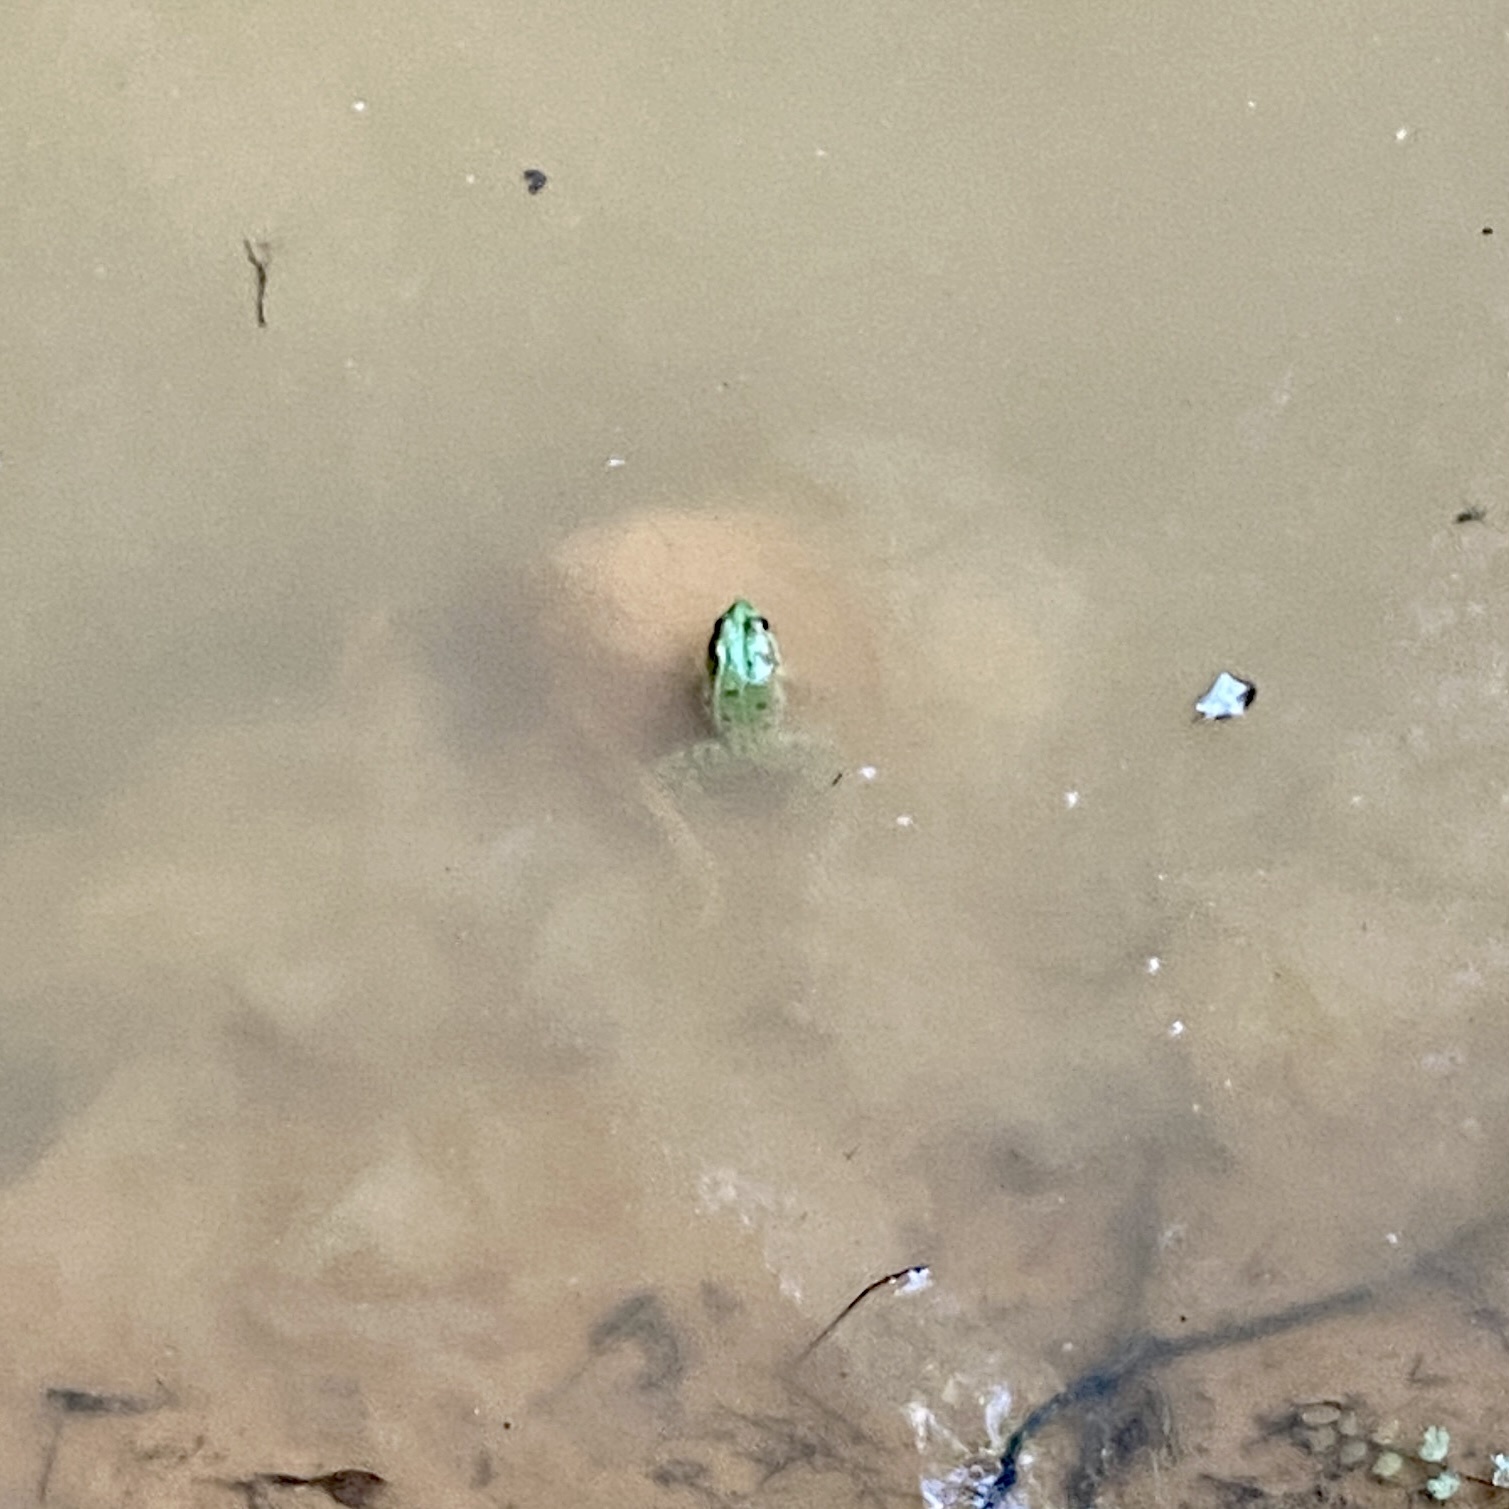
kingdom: Animalia
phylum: Chordata
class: Amphibia
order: Anura
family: Ranidae
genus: Pelophylax
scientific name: Pelophylax perezi
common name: Perez's frog
